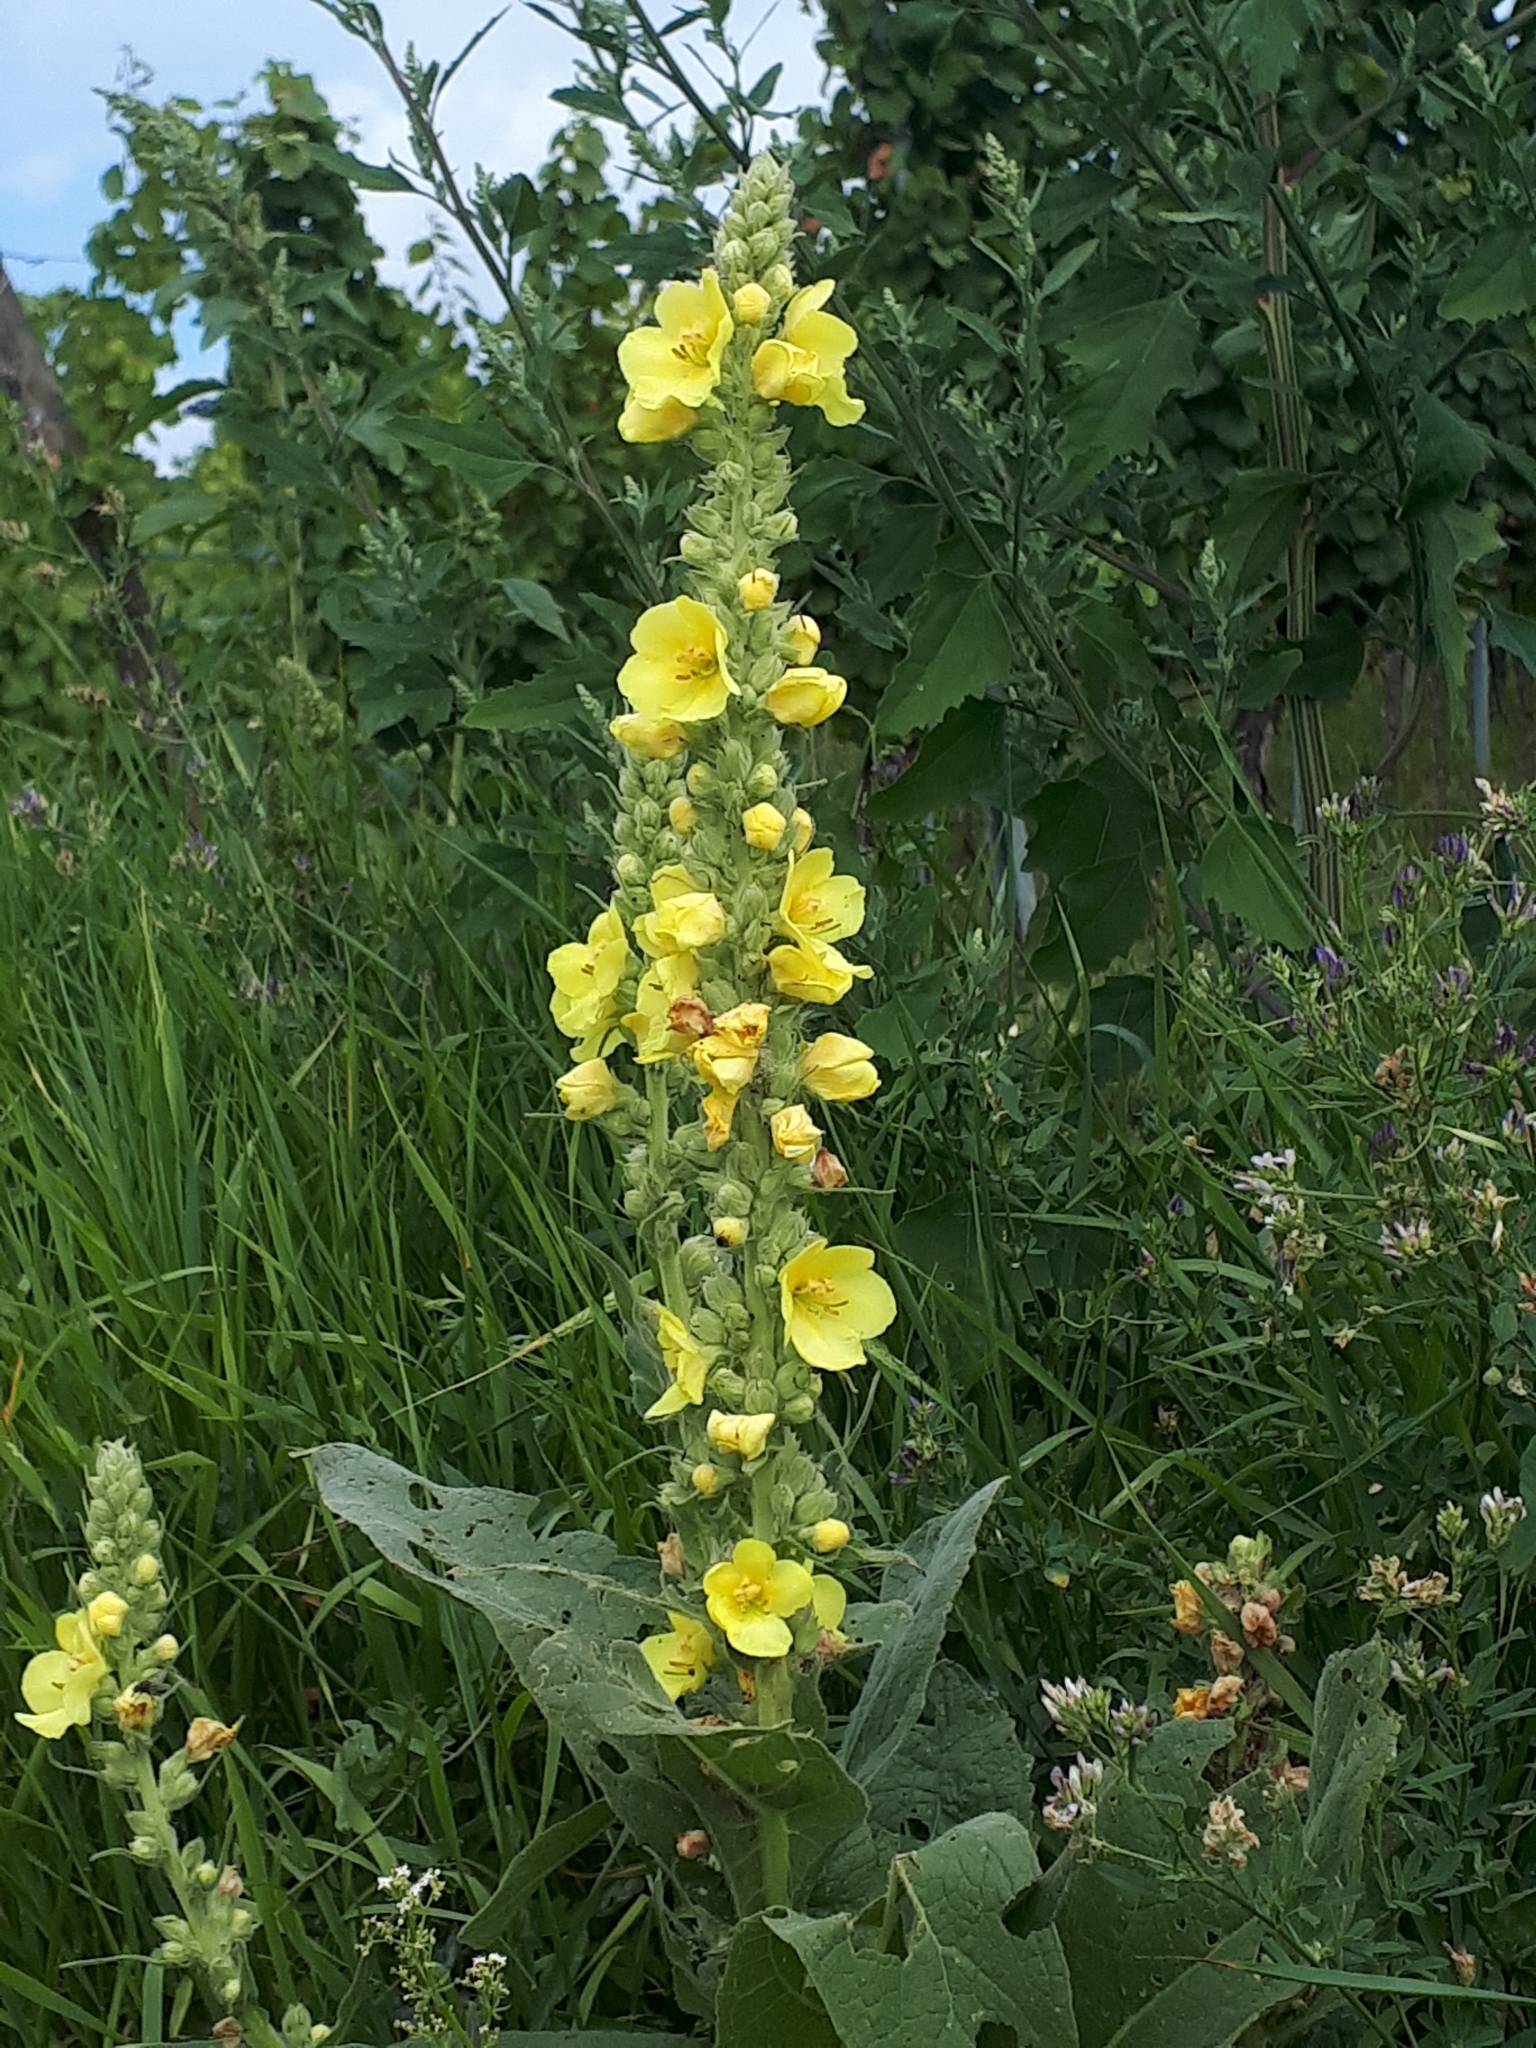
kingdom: Plantae
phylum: Tracheophyta
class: Magnoliopsida
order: Lamiales
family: Scrophulariaceae
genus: Verbascum
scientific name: Verbascum densiflorum
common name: Dense-flowered mullein
